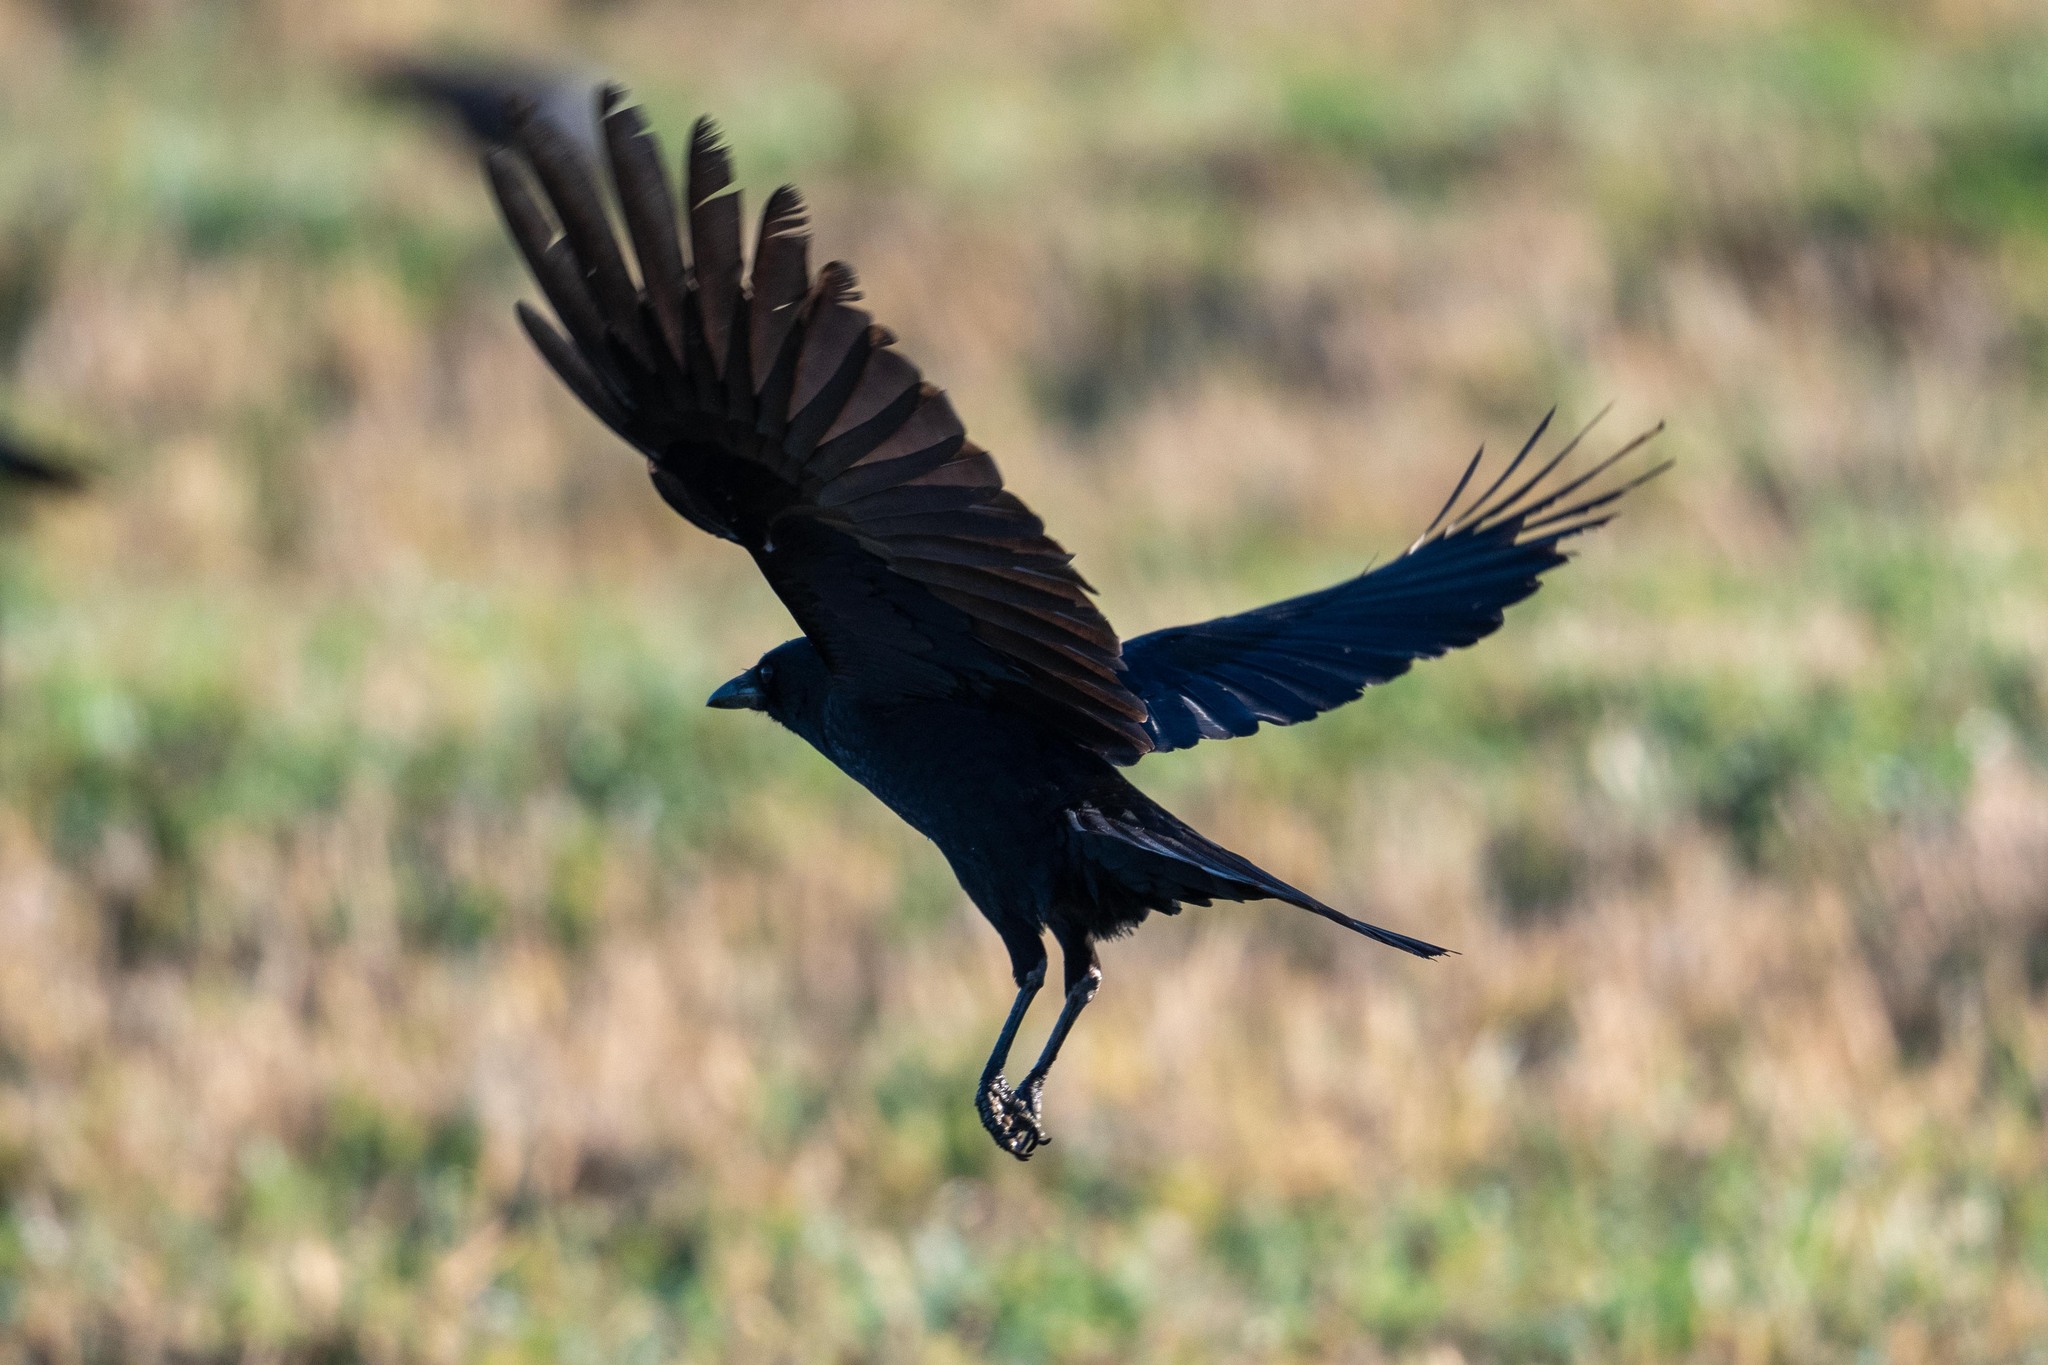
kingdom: Animalia
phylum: Chordata
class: Aves
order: Passeriformes
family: Corvidae
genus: Corvus
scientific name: Corvus brachyrhynchos
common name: American crow
